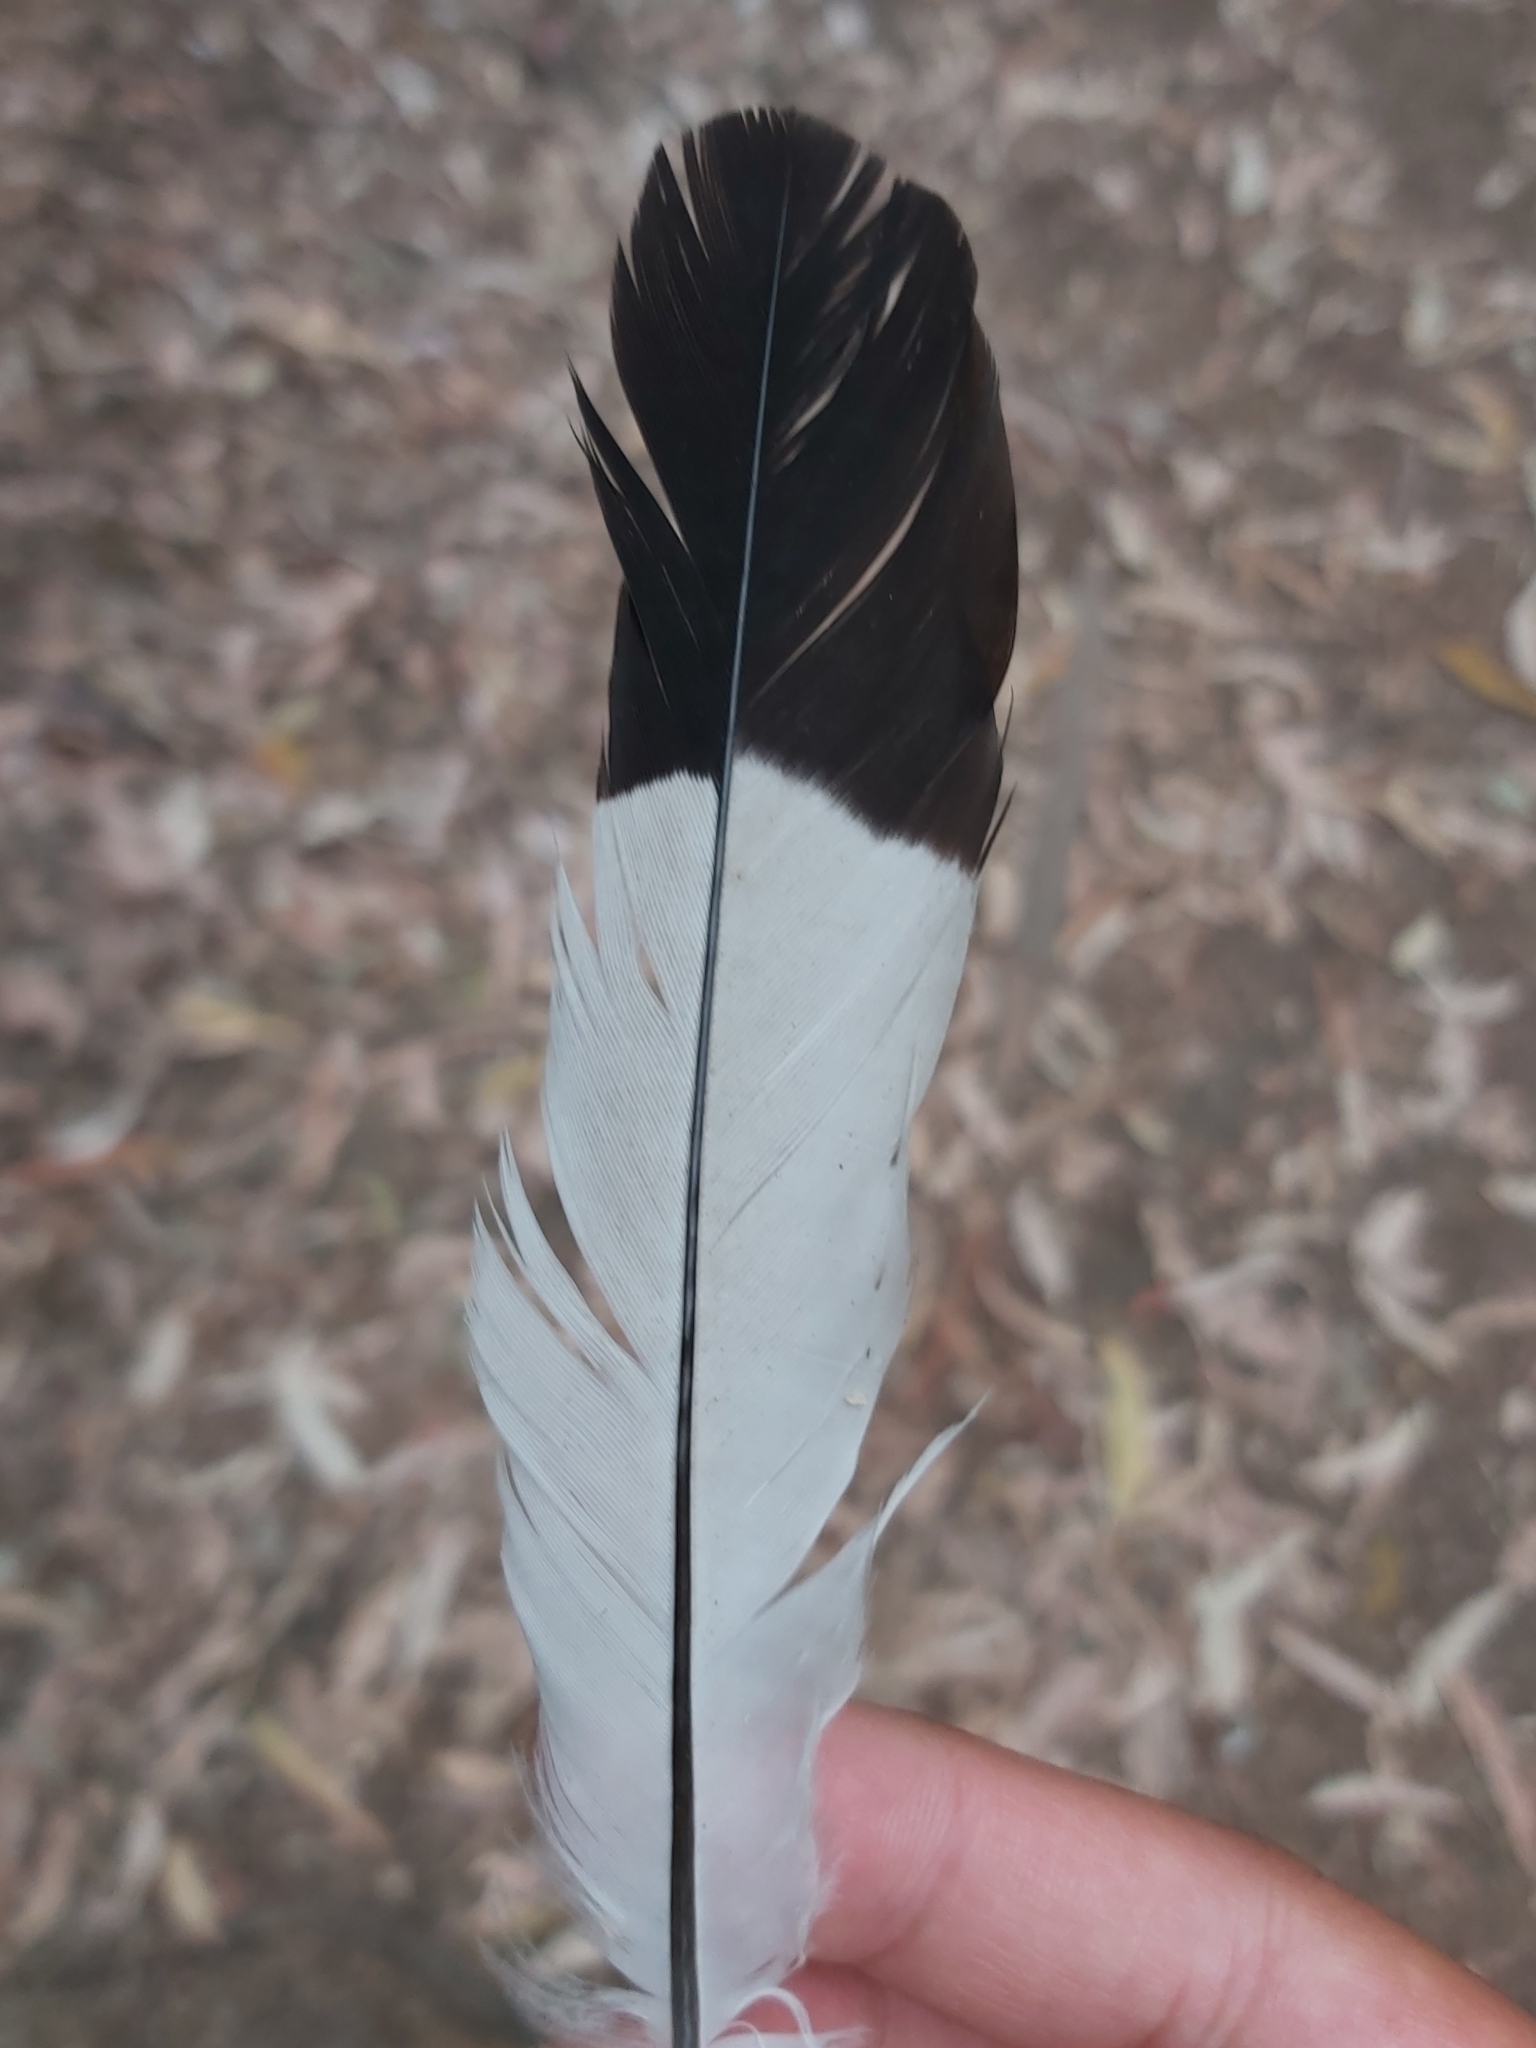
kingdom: Animalia
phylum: Chordata
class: Aves
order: Passeriformes
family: Cracticidae
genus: Gymnorhina
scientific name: Gymnorhina tibicen
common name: Australian magpie
